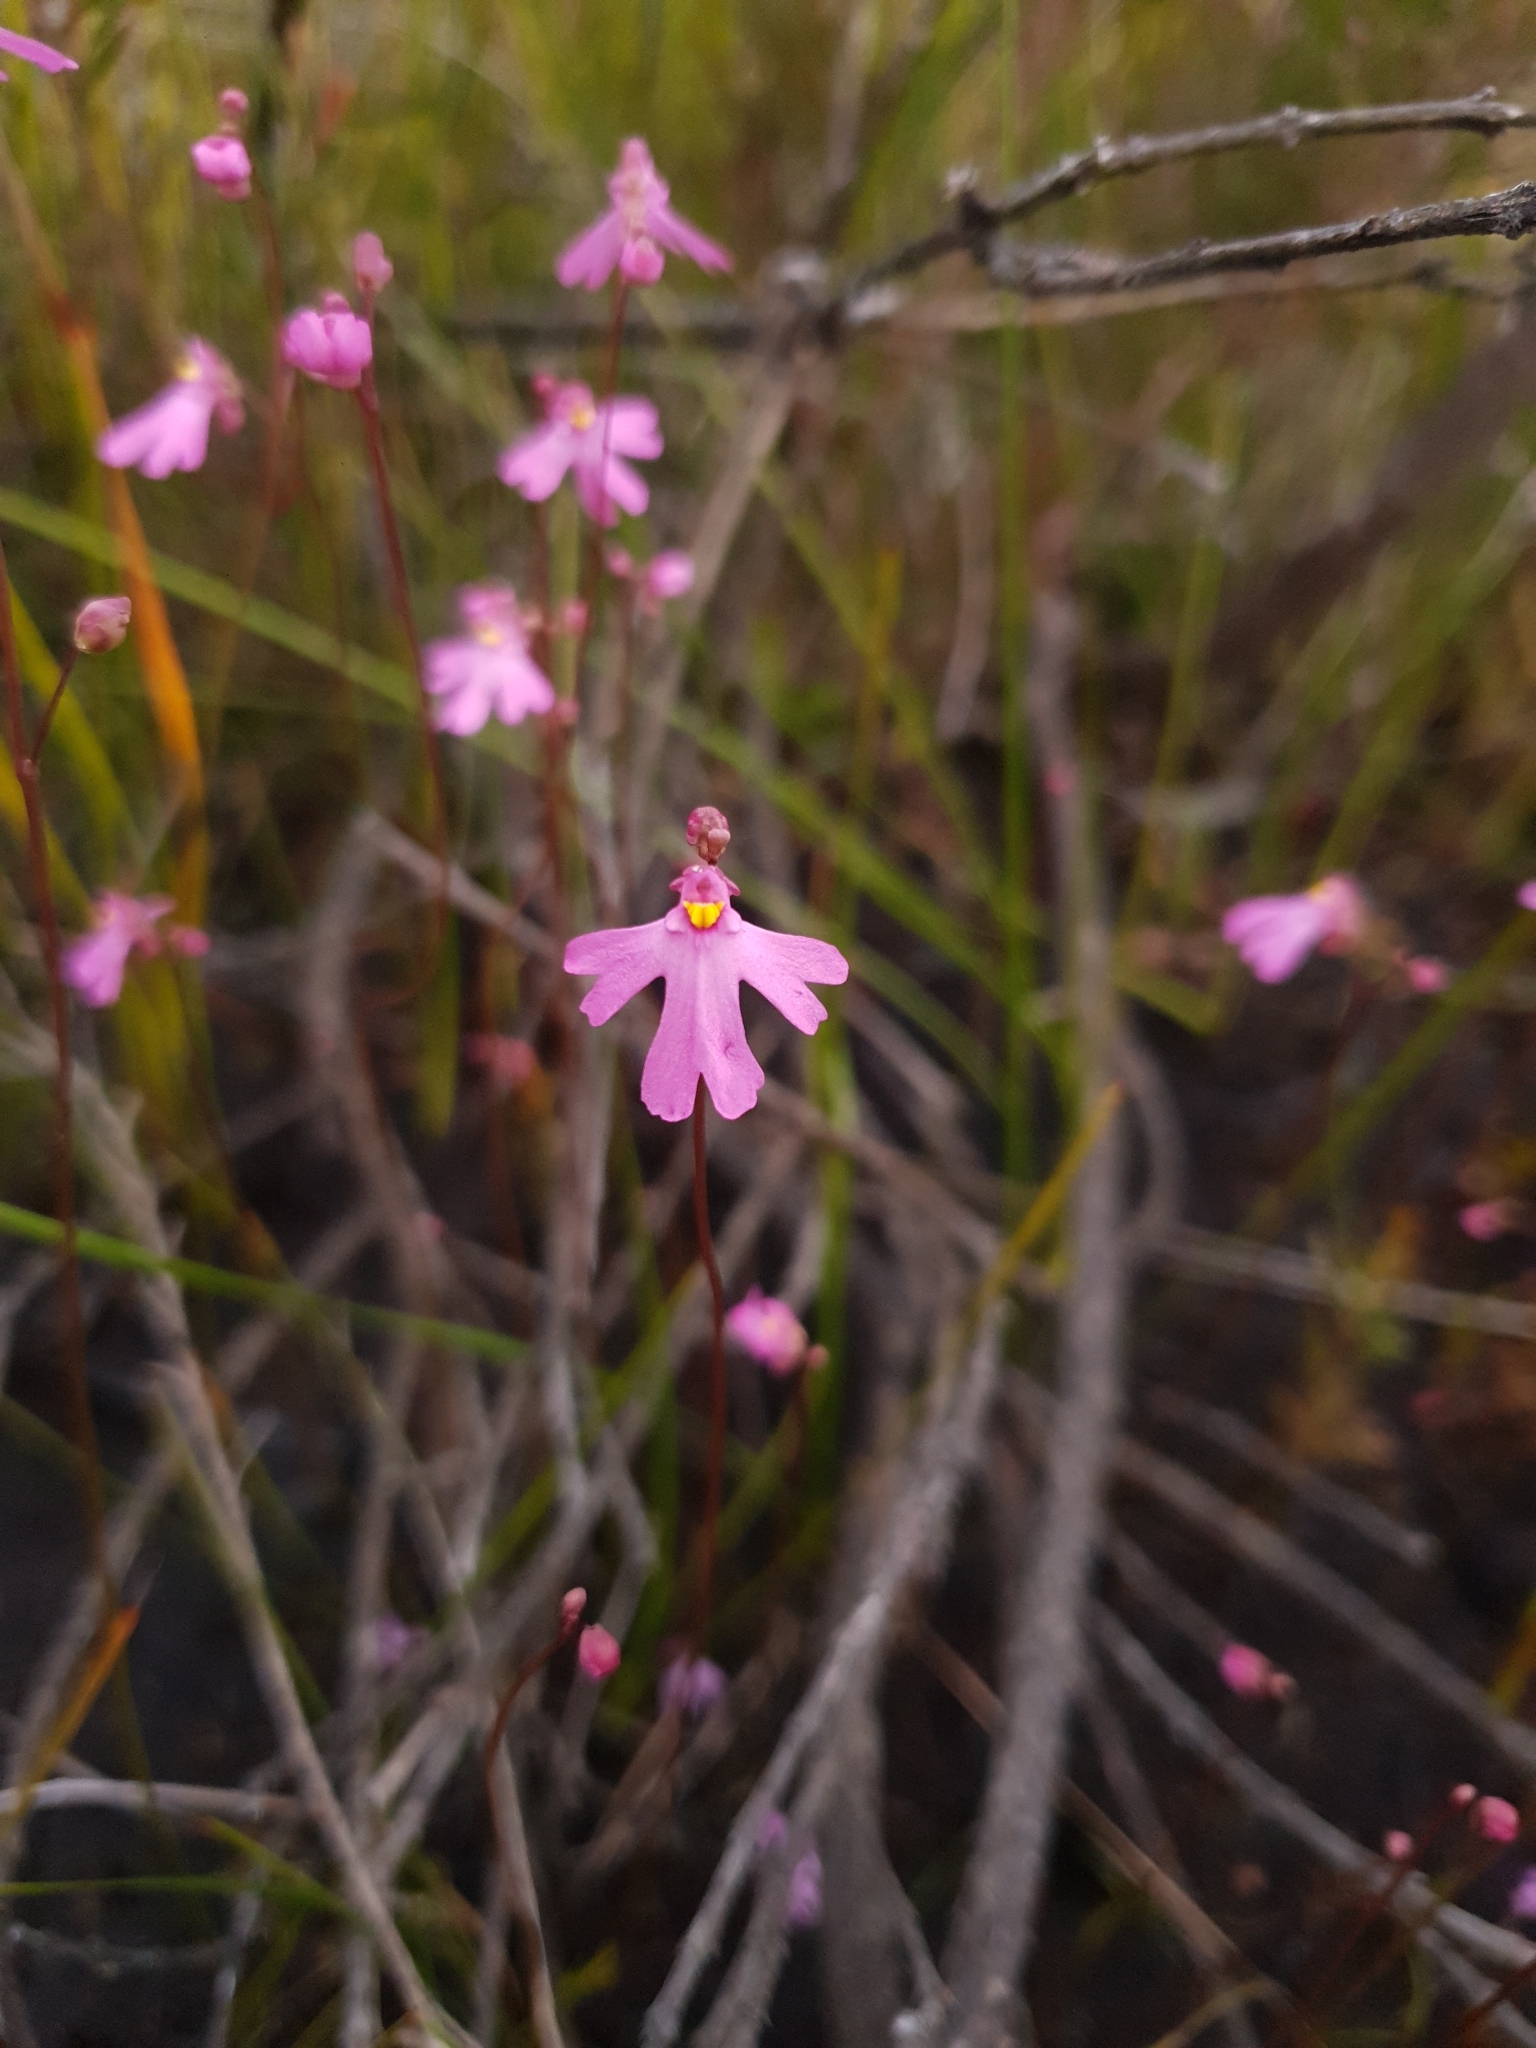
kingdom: Plantae
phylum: Tracheophyta
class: Magnoliopsida
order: Lamiales
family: Lentibulariaceae
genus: Utricularia
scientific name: Utricularia multifida
